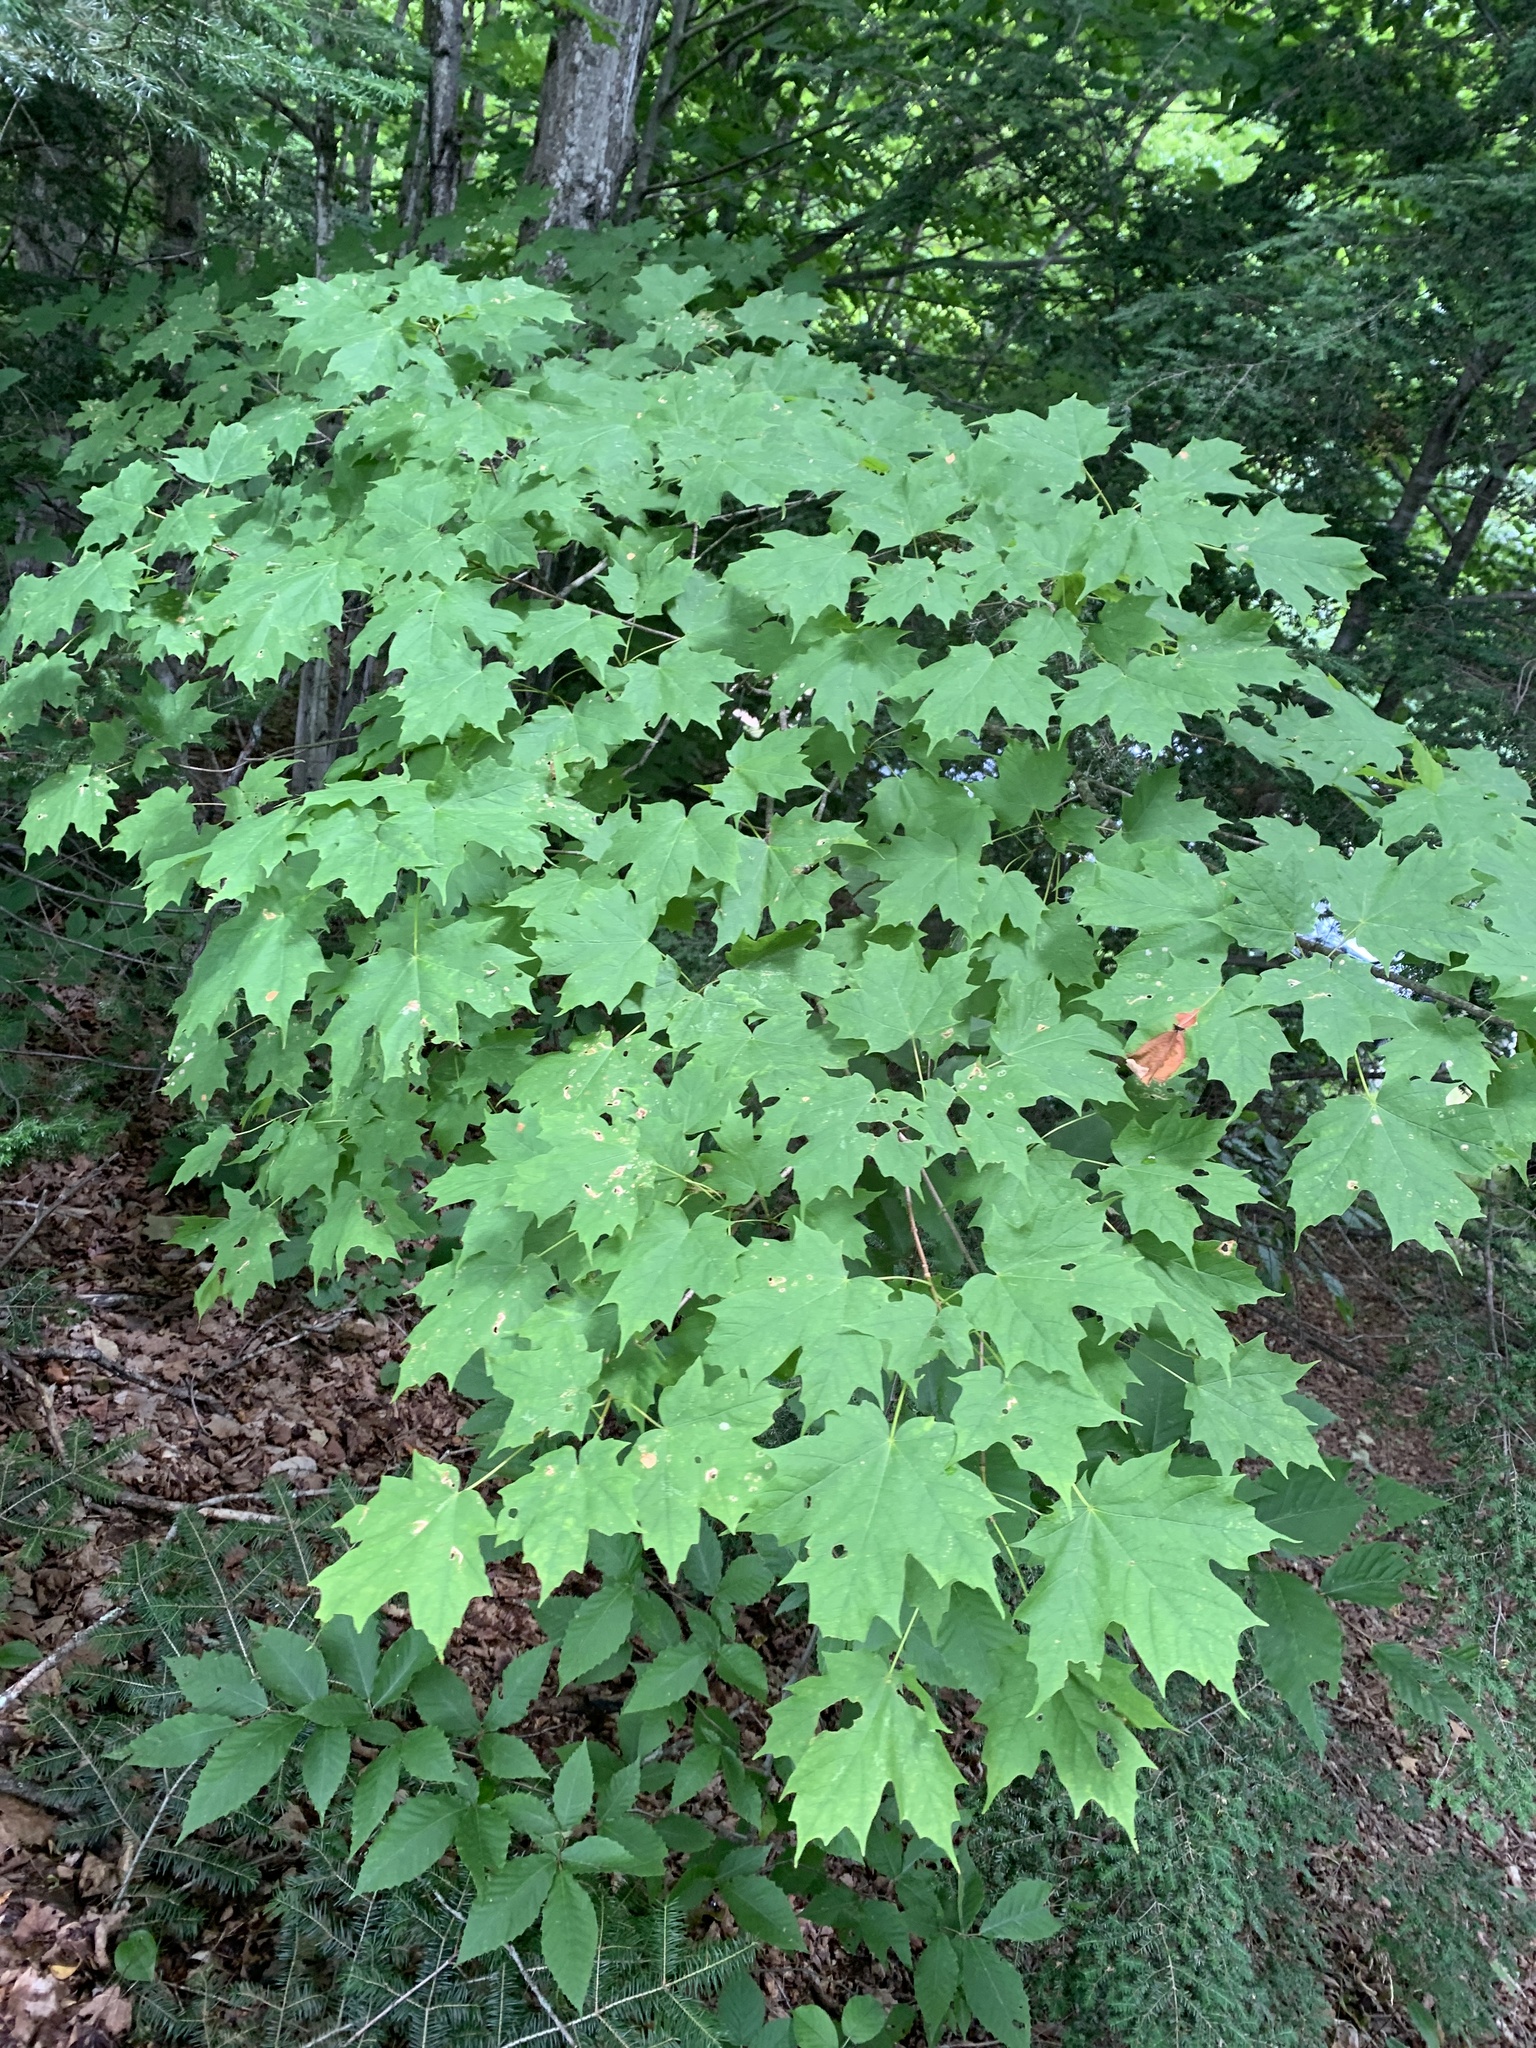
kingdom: Plantae
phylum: Tracheophyta
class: Magnoliopsida
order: Sapindales
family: Sapindaceae
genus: Acer
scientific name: Acer saccharum
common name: Sugar maple
